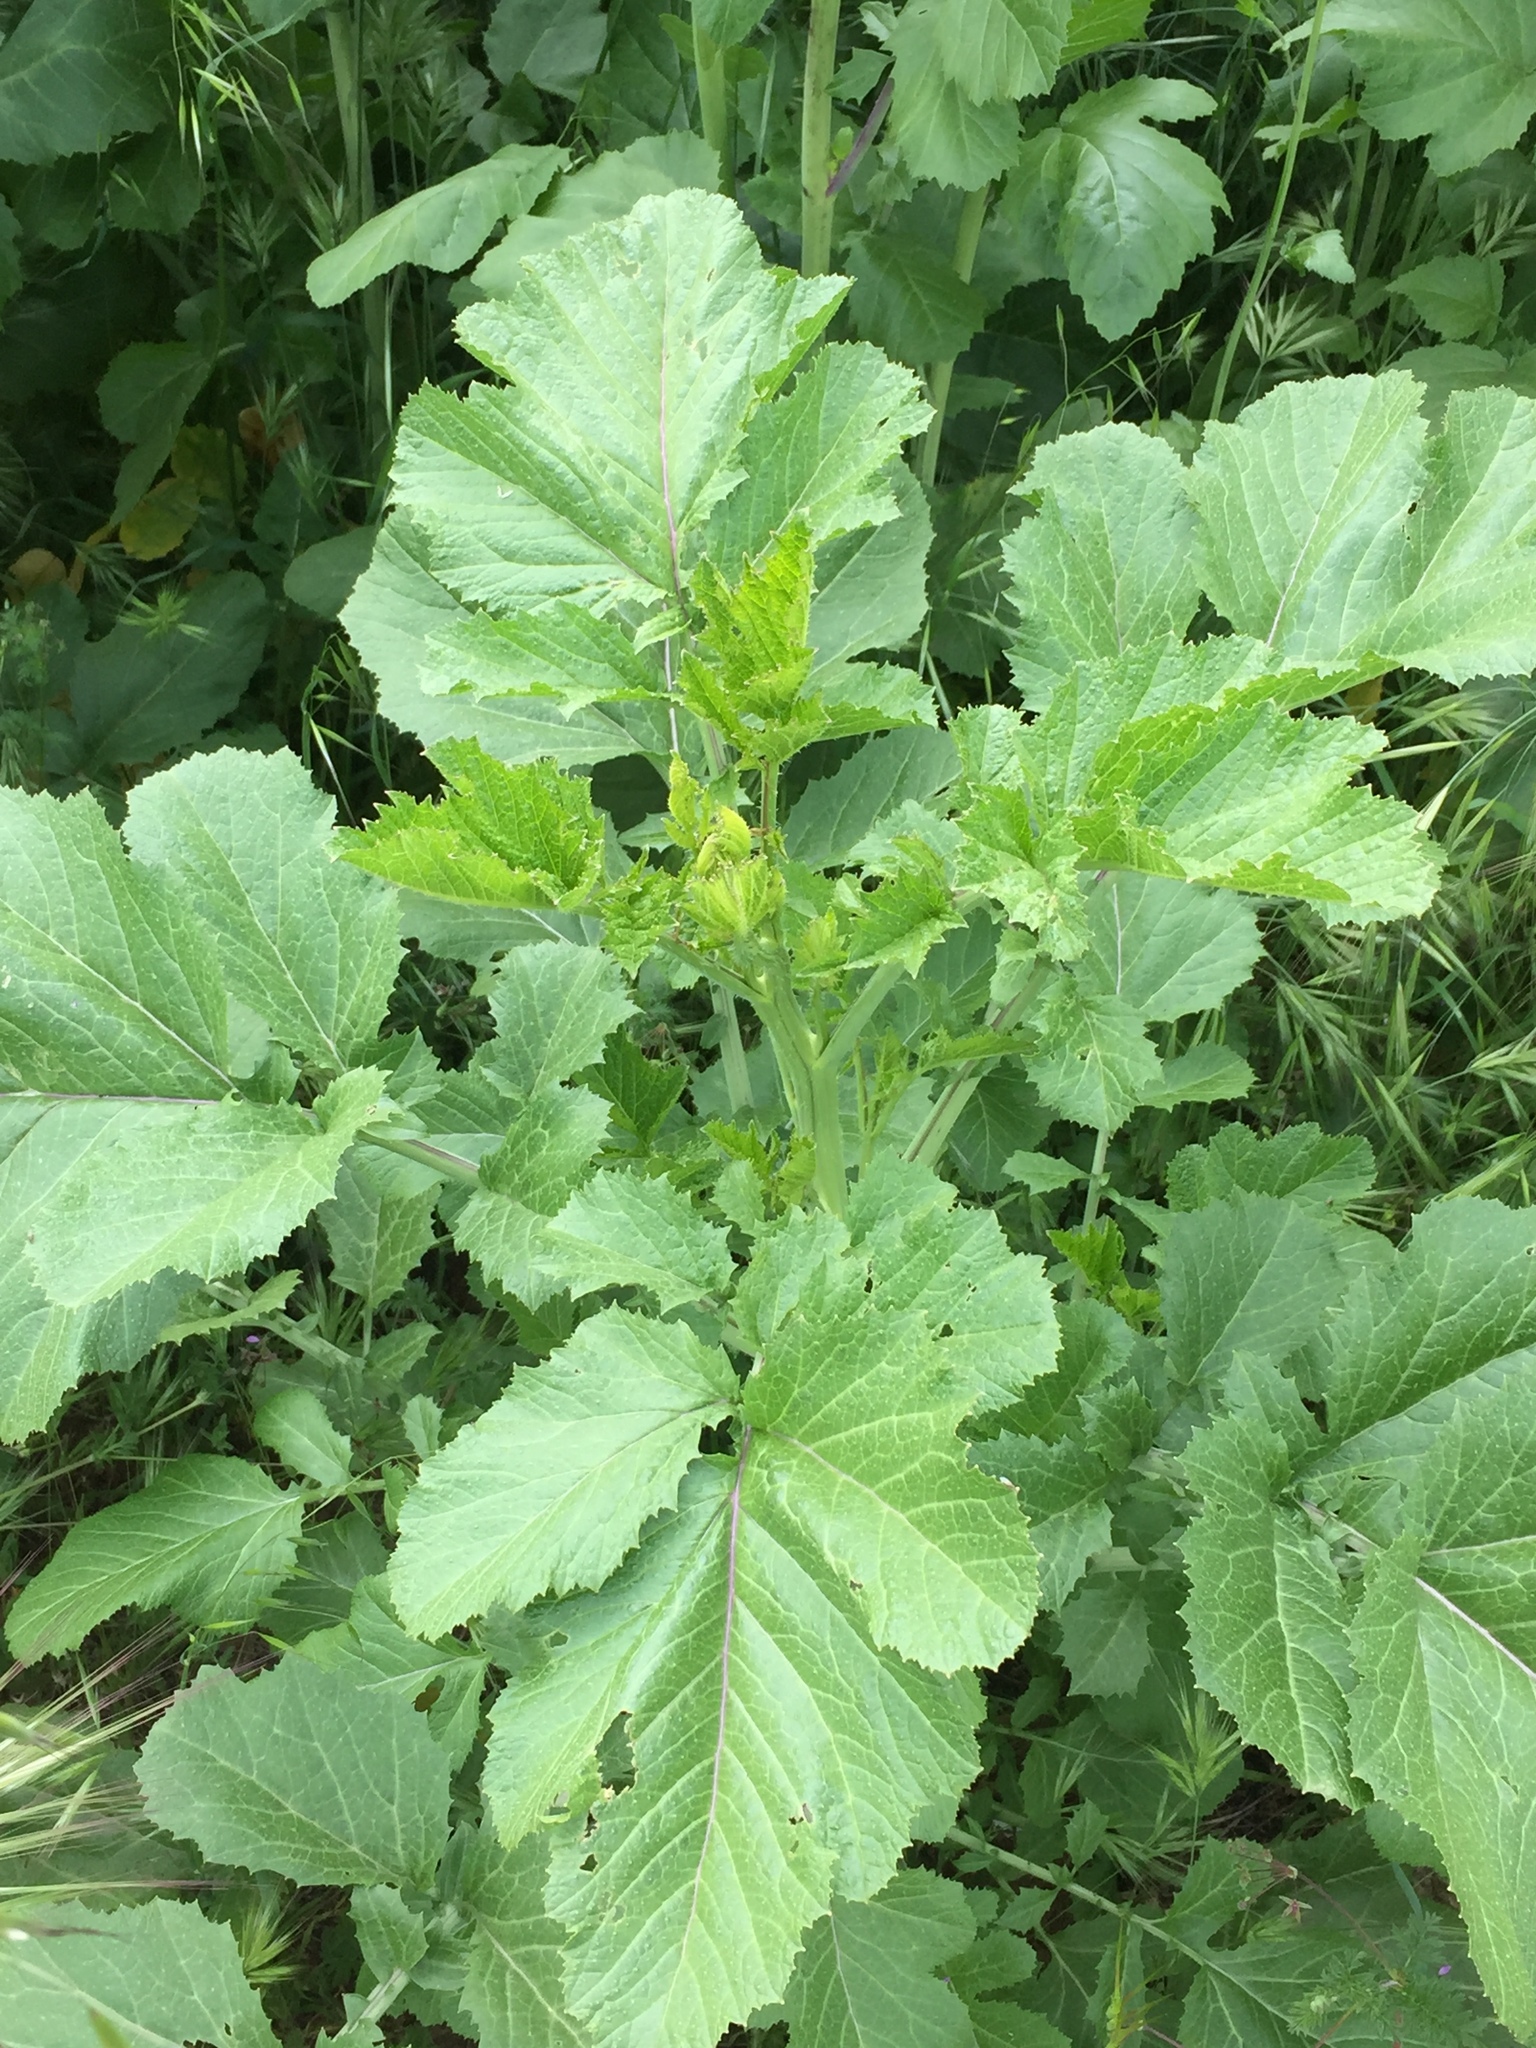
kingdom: Plantae
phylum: Tracheophyta
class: Magnoliopsida
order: Brassicales
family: Brassicaceae
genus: Brassica
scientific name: Brassica nigra
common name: Black mustard
